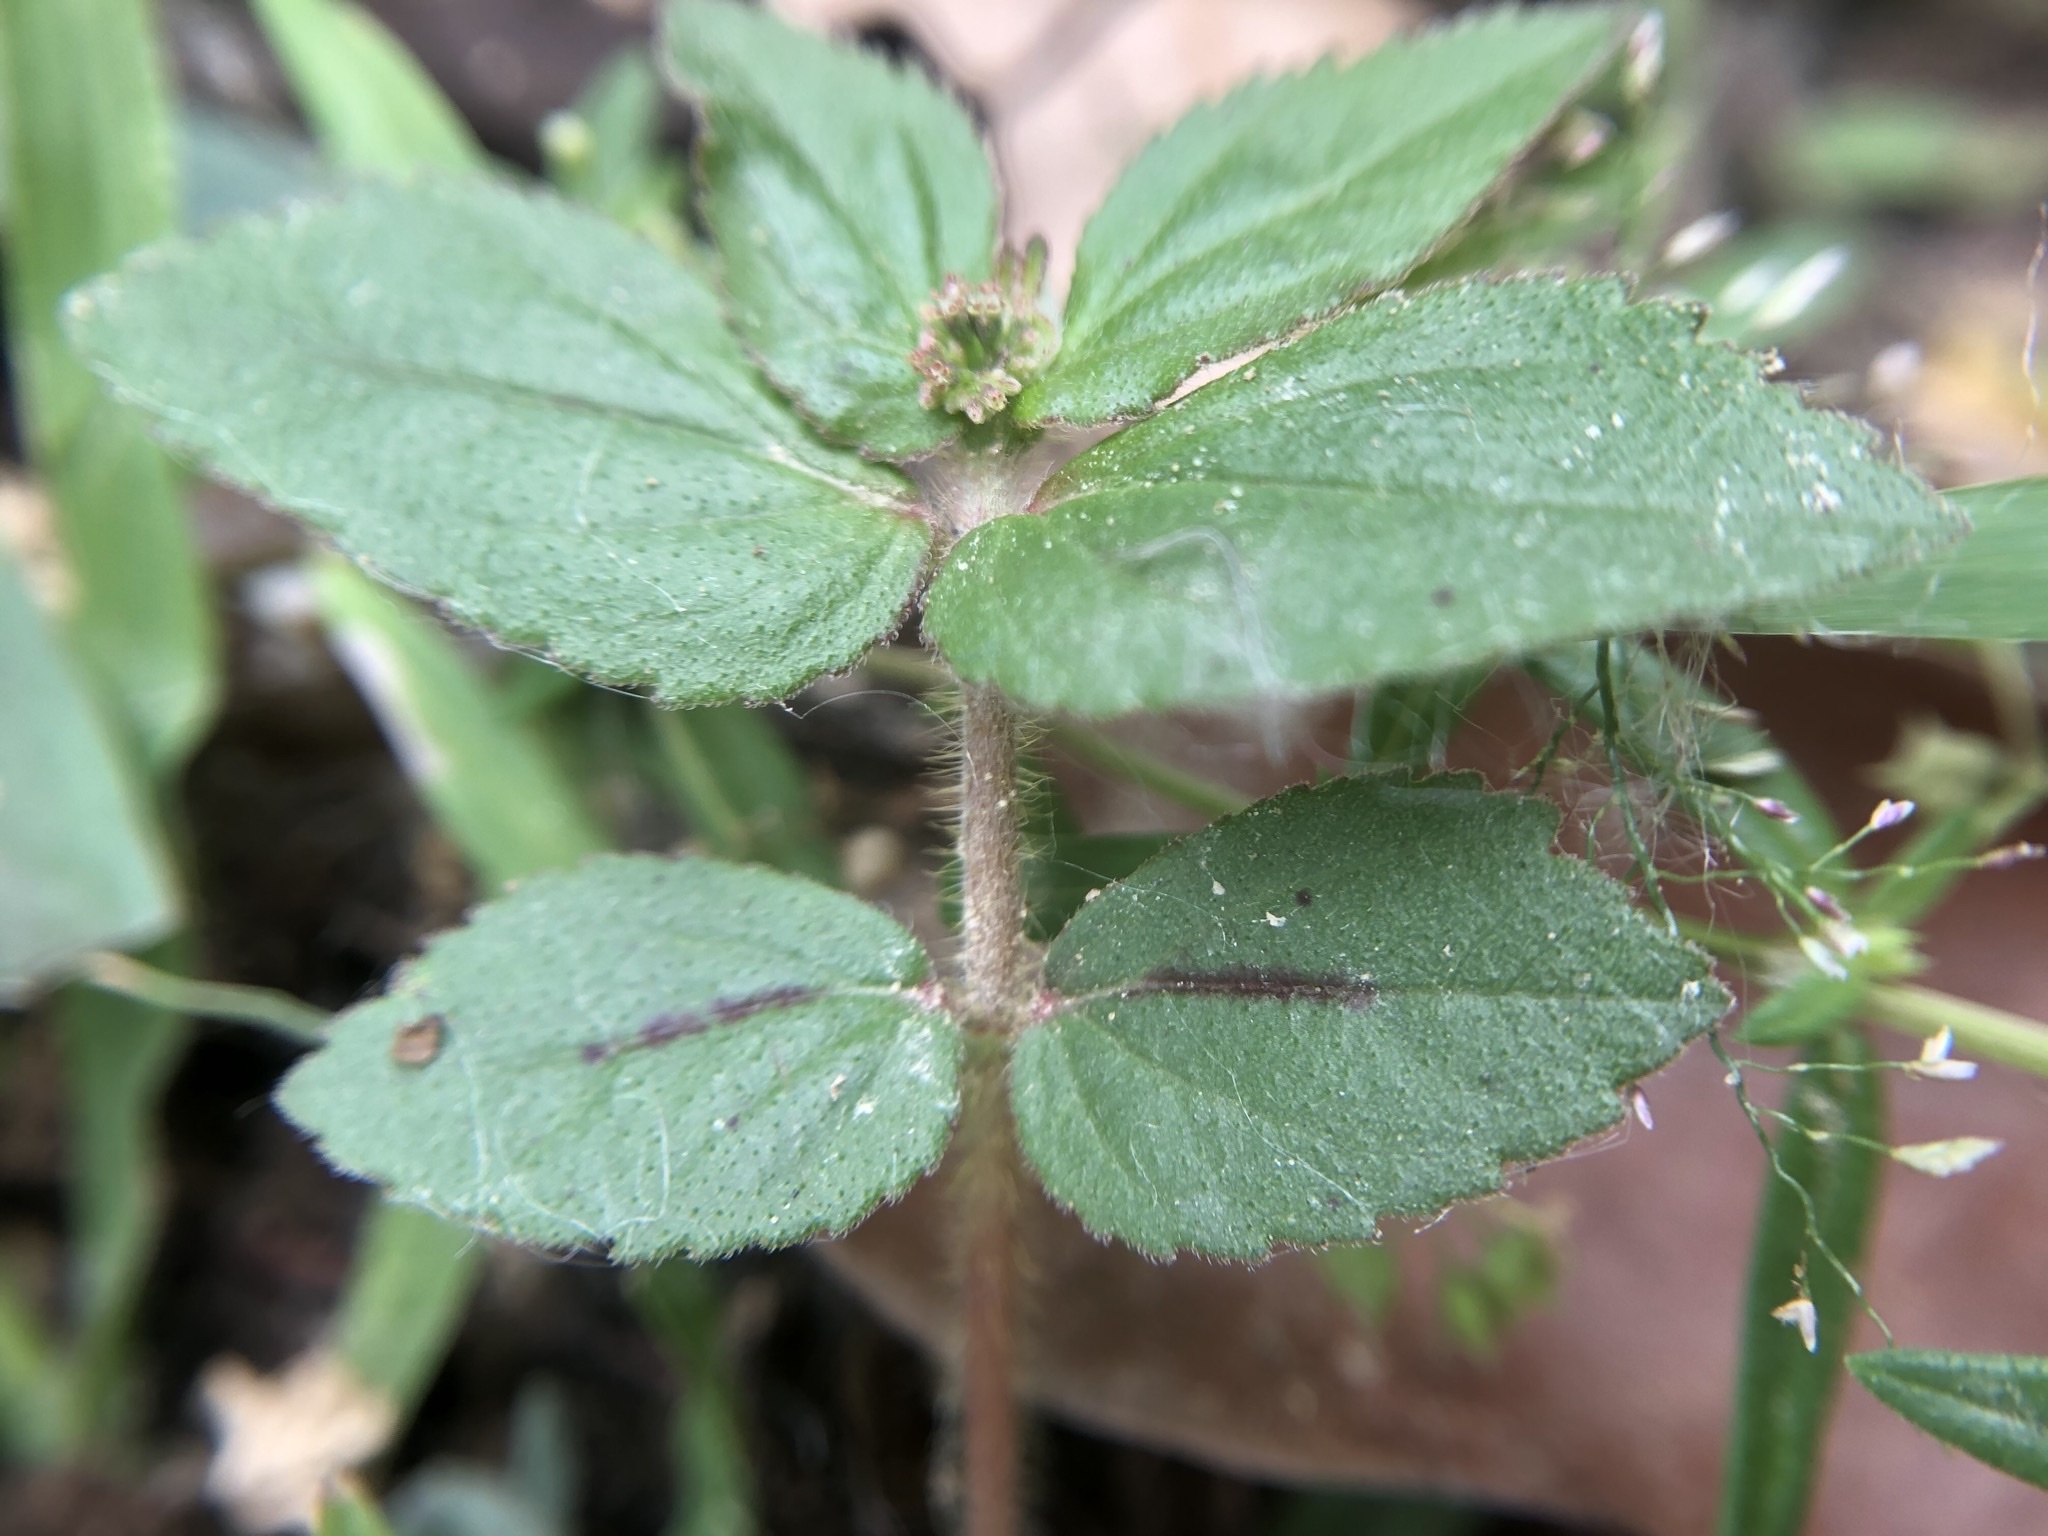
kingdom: Plantae
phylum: Tracheophyta
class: Magnoliopsida
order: Malpighiales
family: Euphorbiaceae
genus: Euphorbia
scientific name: Euphorbia hirta
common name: Pillpod sandmat
